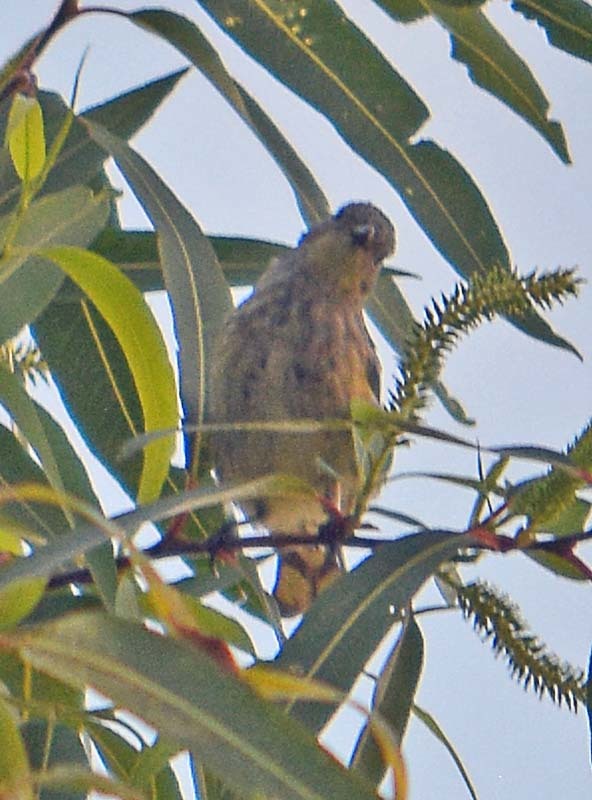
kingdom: Animalia
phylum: Chordata
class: Aves
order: Passeriformes
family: Parulidae
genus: Setophaga
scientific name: Setophaga coronata
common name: Myrtle warbler
